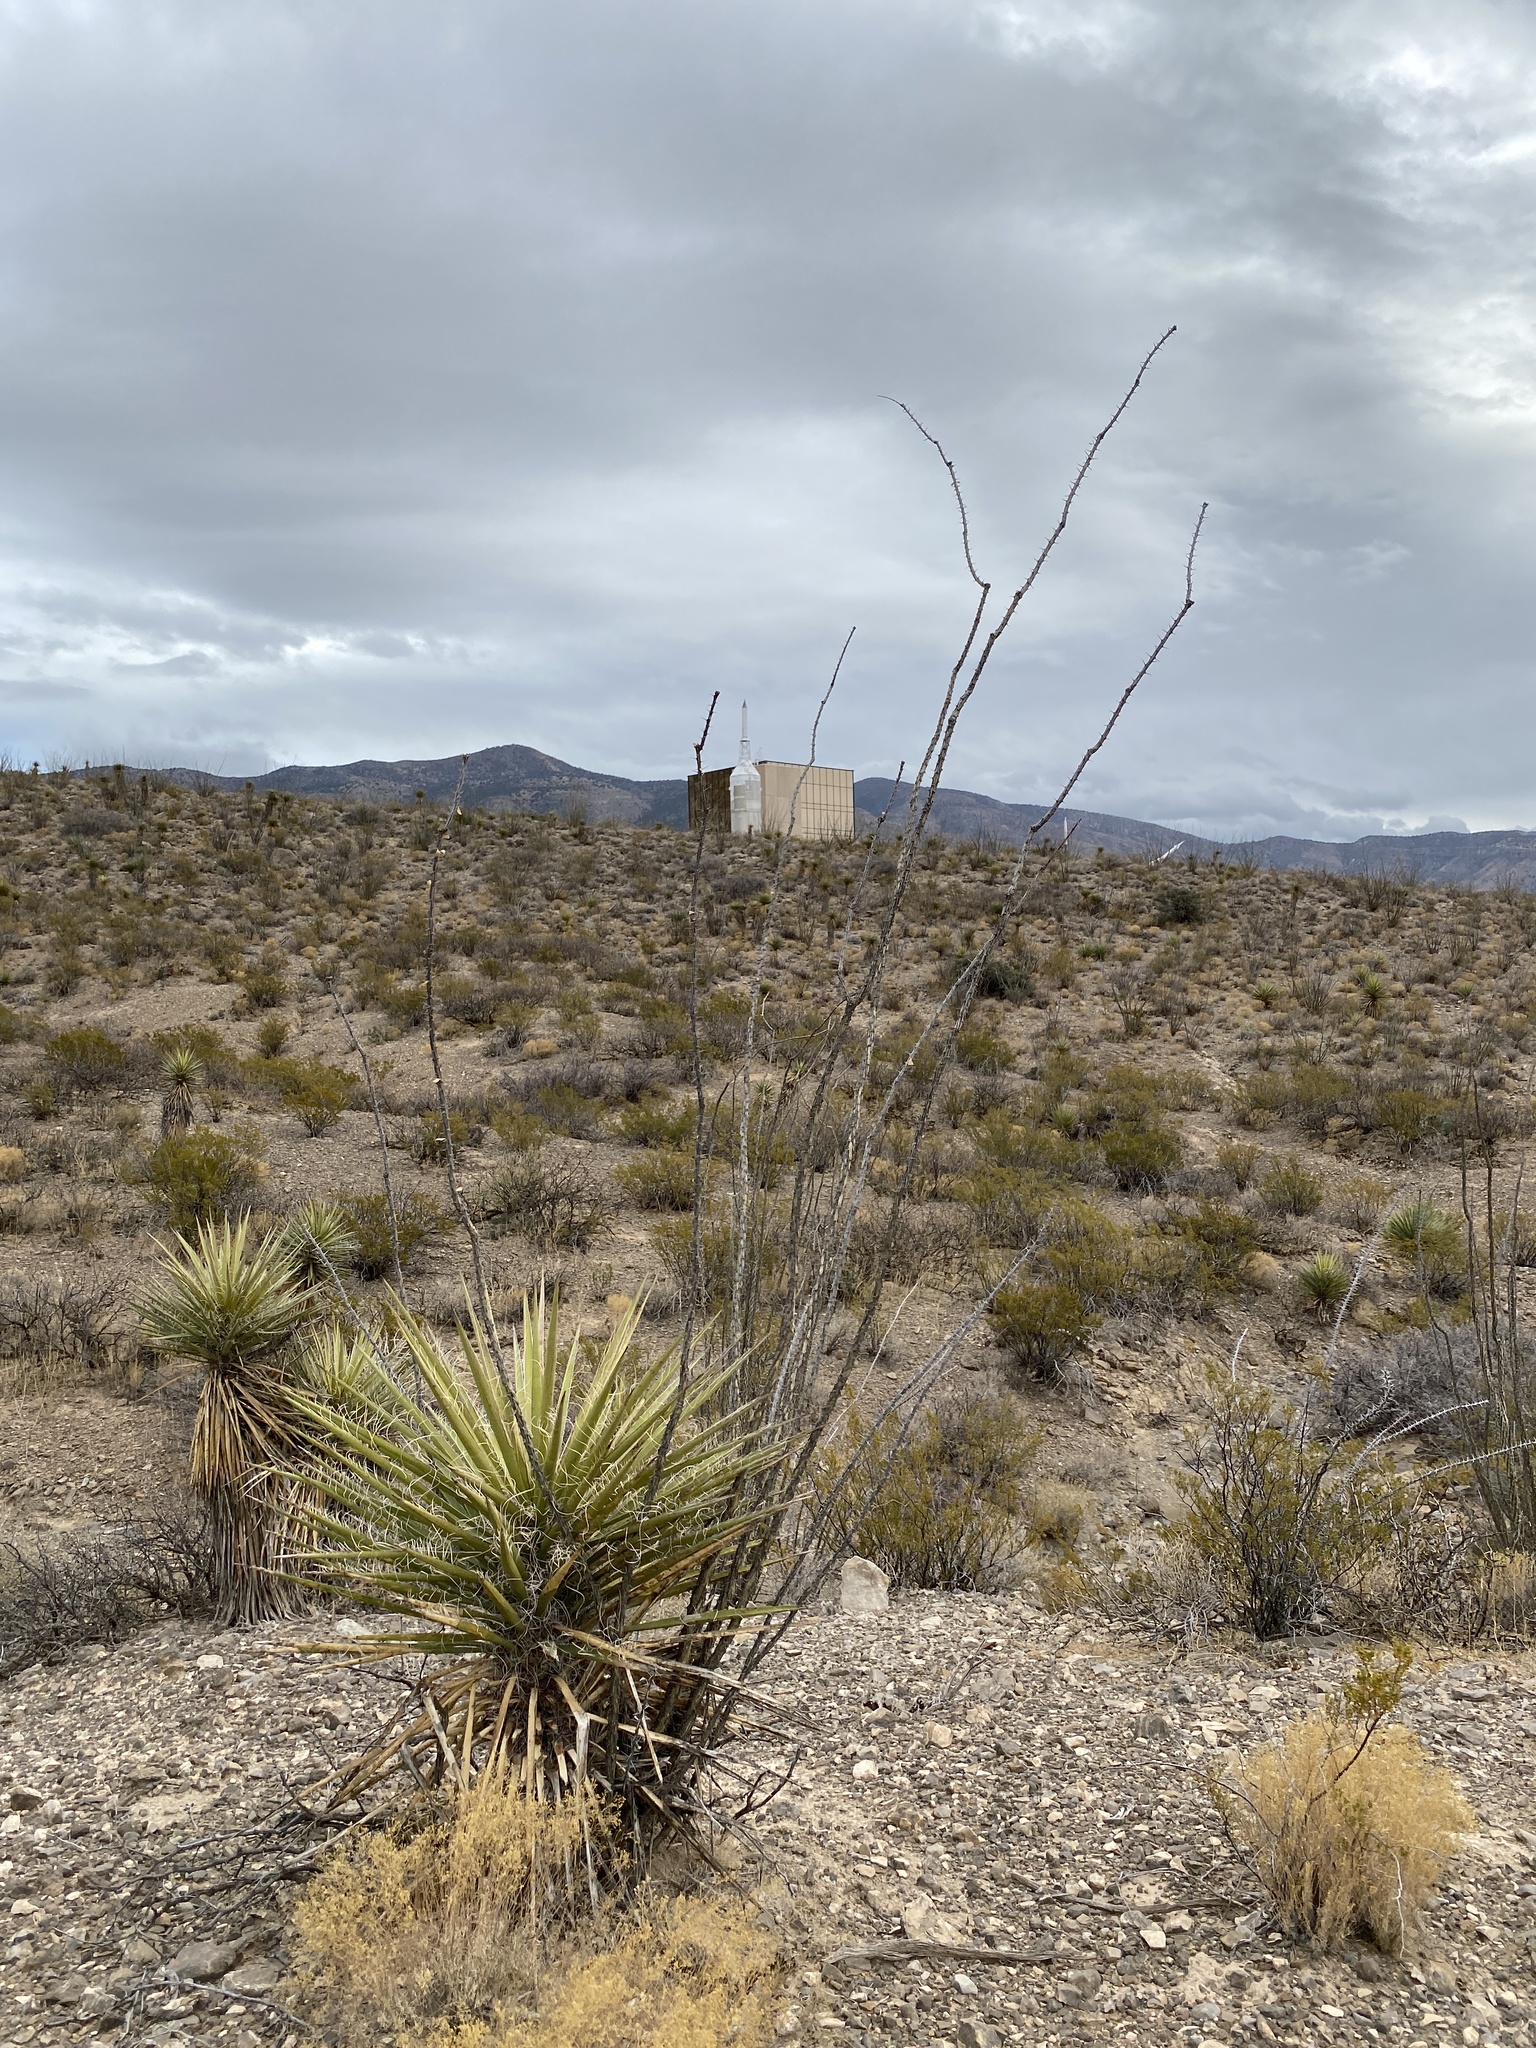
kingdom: Plantae
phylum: Tracheophyta
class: Magnoliopsida
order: Ericales
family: Fouquieriaceae
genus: Fouquieria
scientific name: Fouquieria splendens
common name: Vine-cactus
